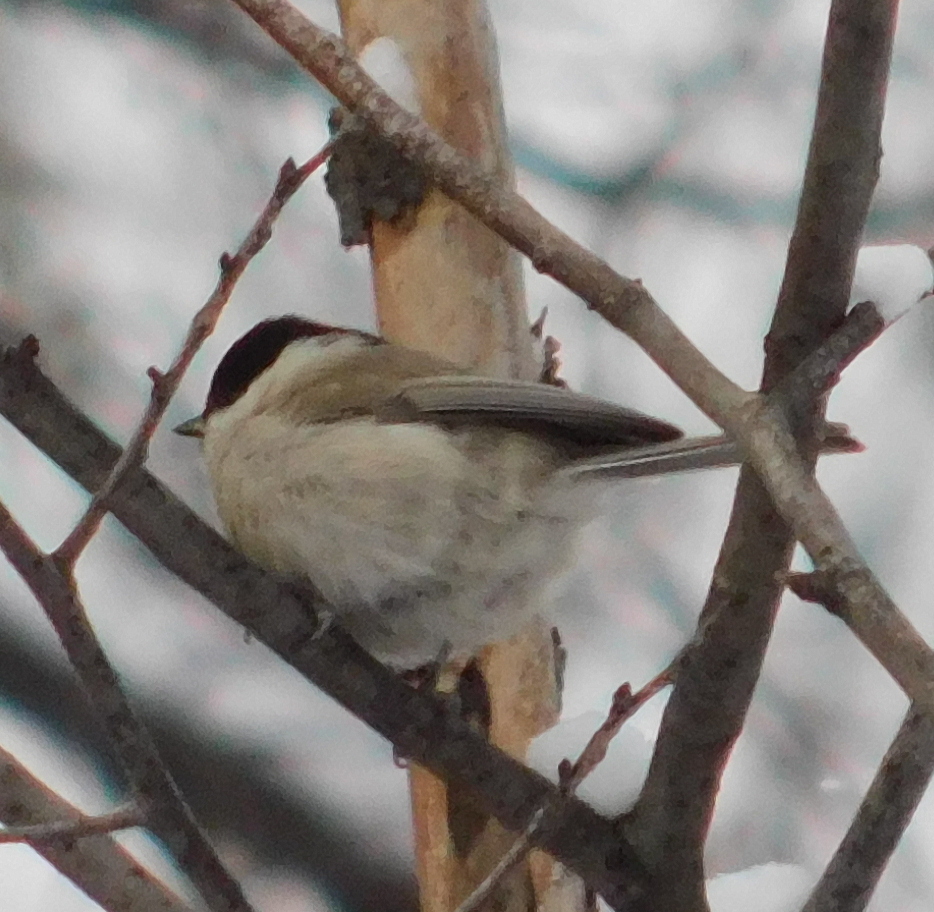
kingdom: Animalia
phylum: Chordata
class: Aves
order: Passeriformes
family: Paridae
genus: Poecile
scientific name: Poecile palustris
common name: Marsh tit
